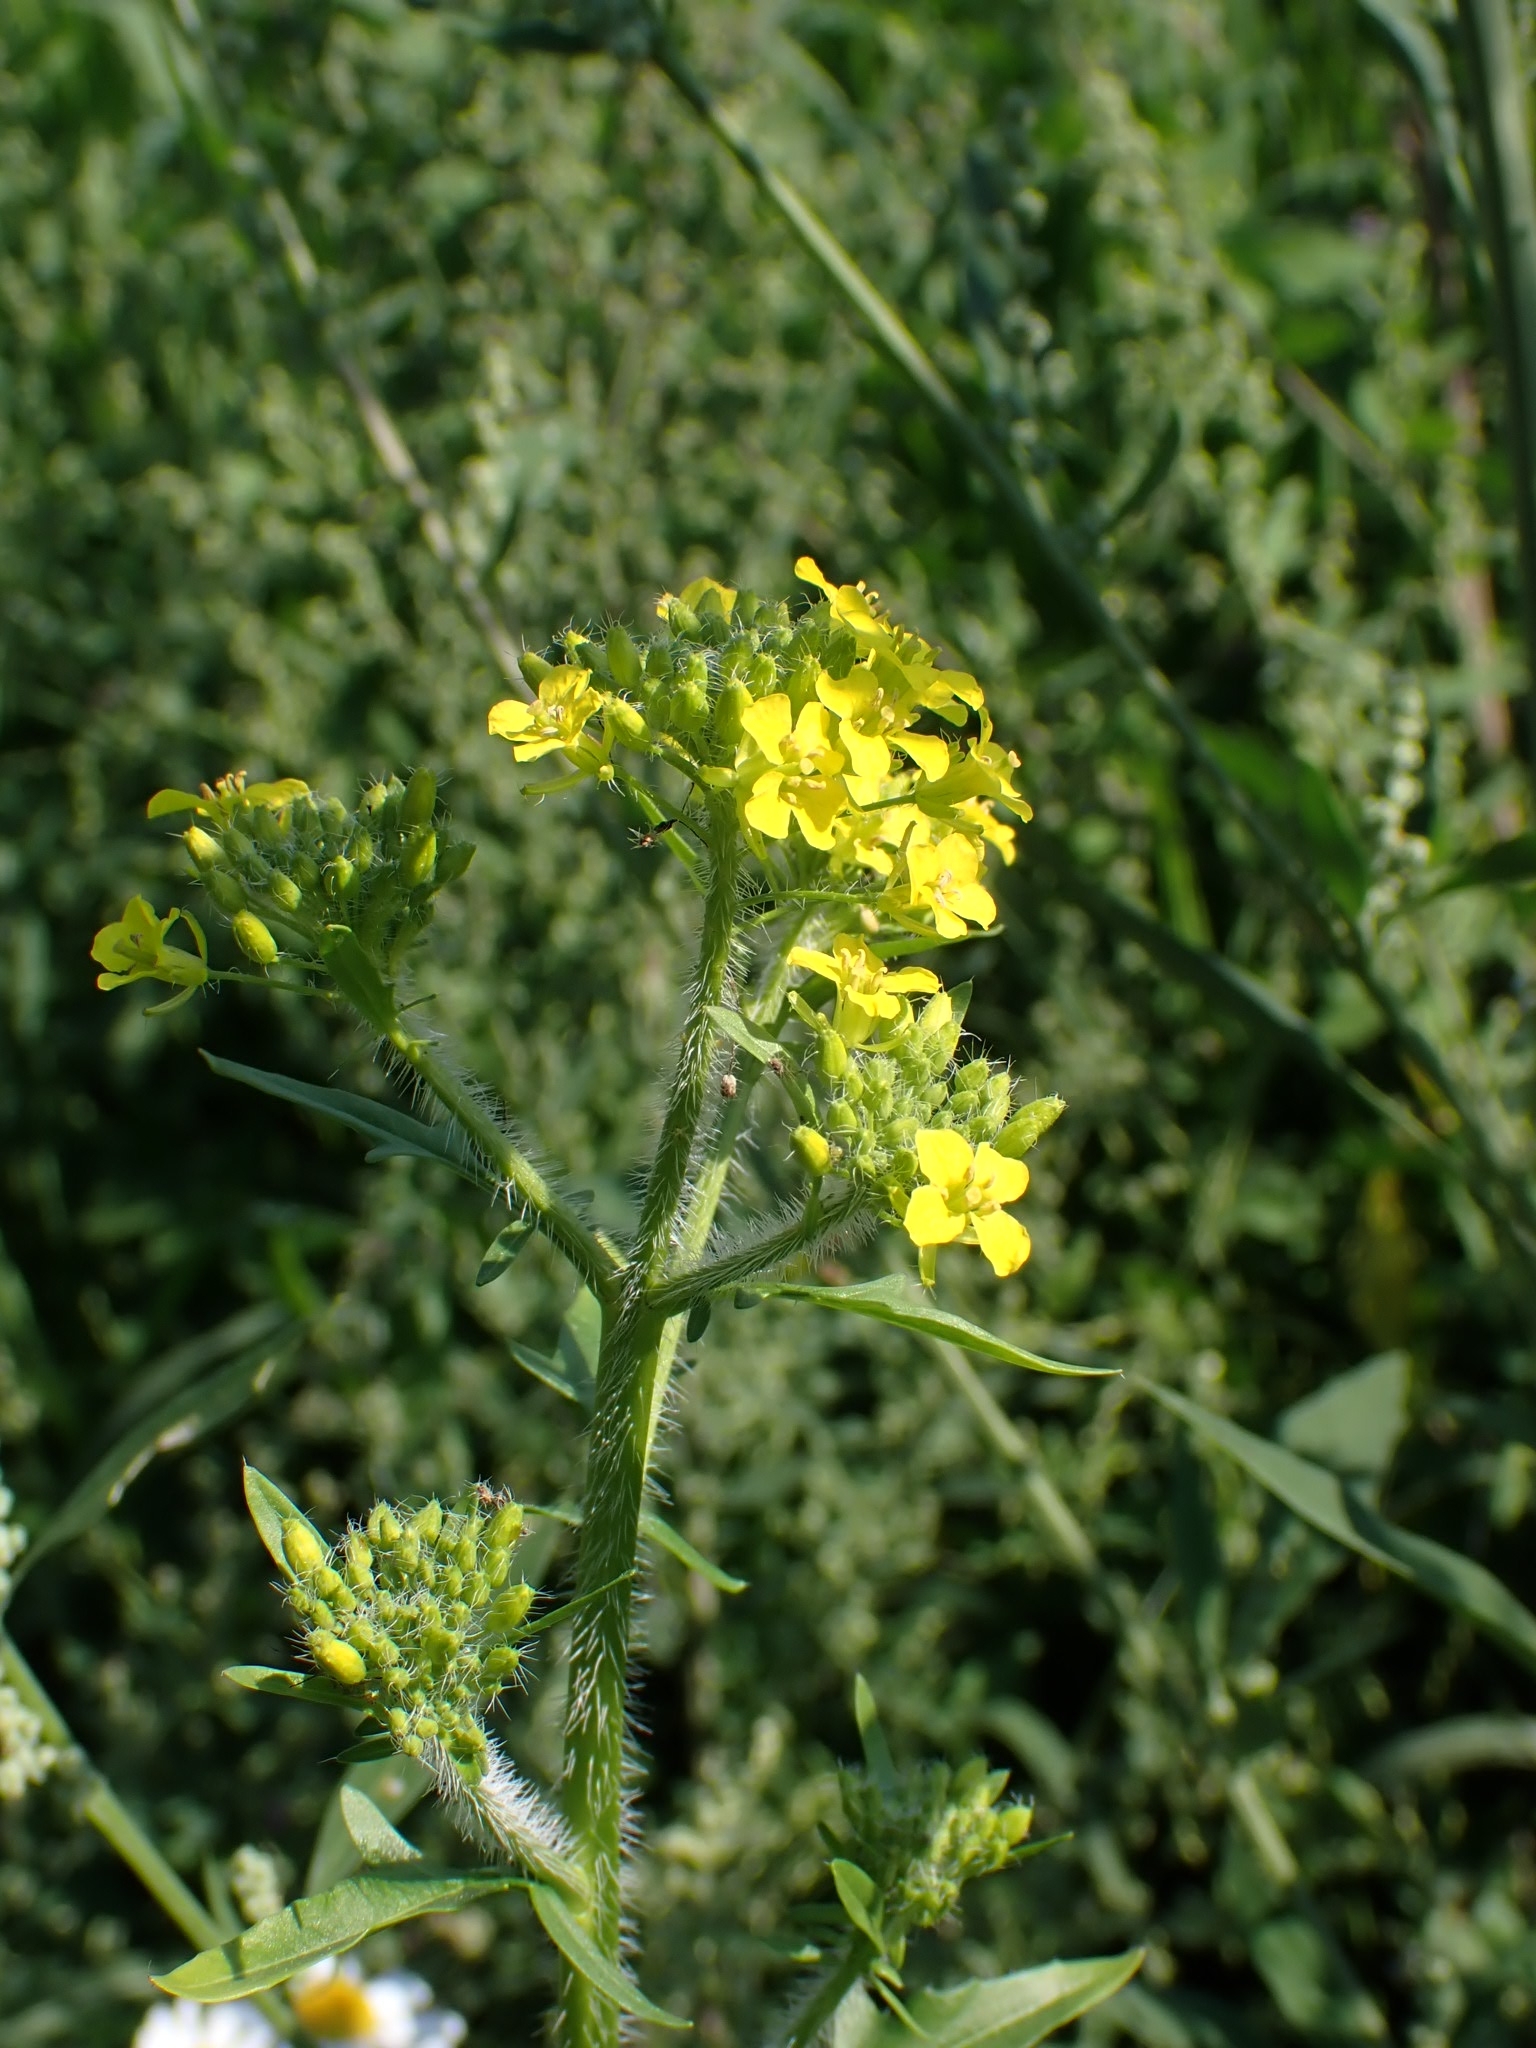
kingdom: Plantae
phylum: Tracheophyta
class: Magnoliopsida
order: Brassicales
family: Brassicaceae
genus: Sisymbrium
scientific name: Sisymbrium loeselii
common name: False london-rocket
